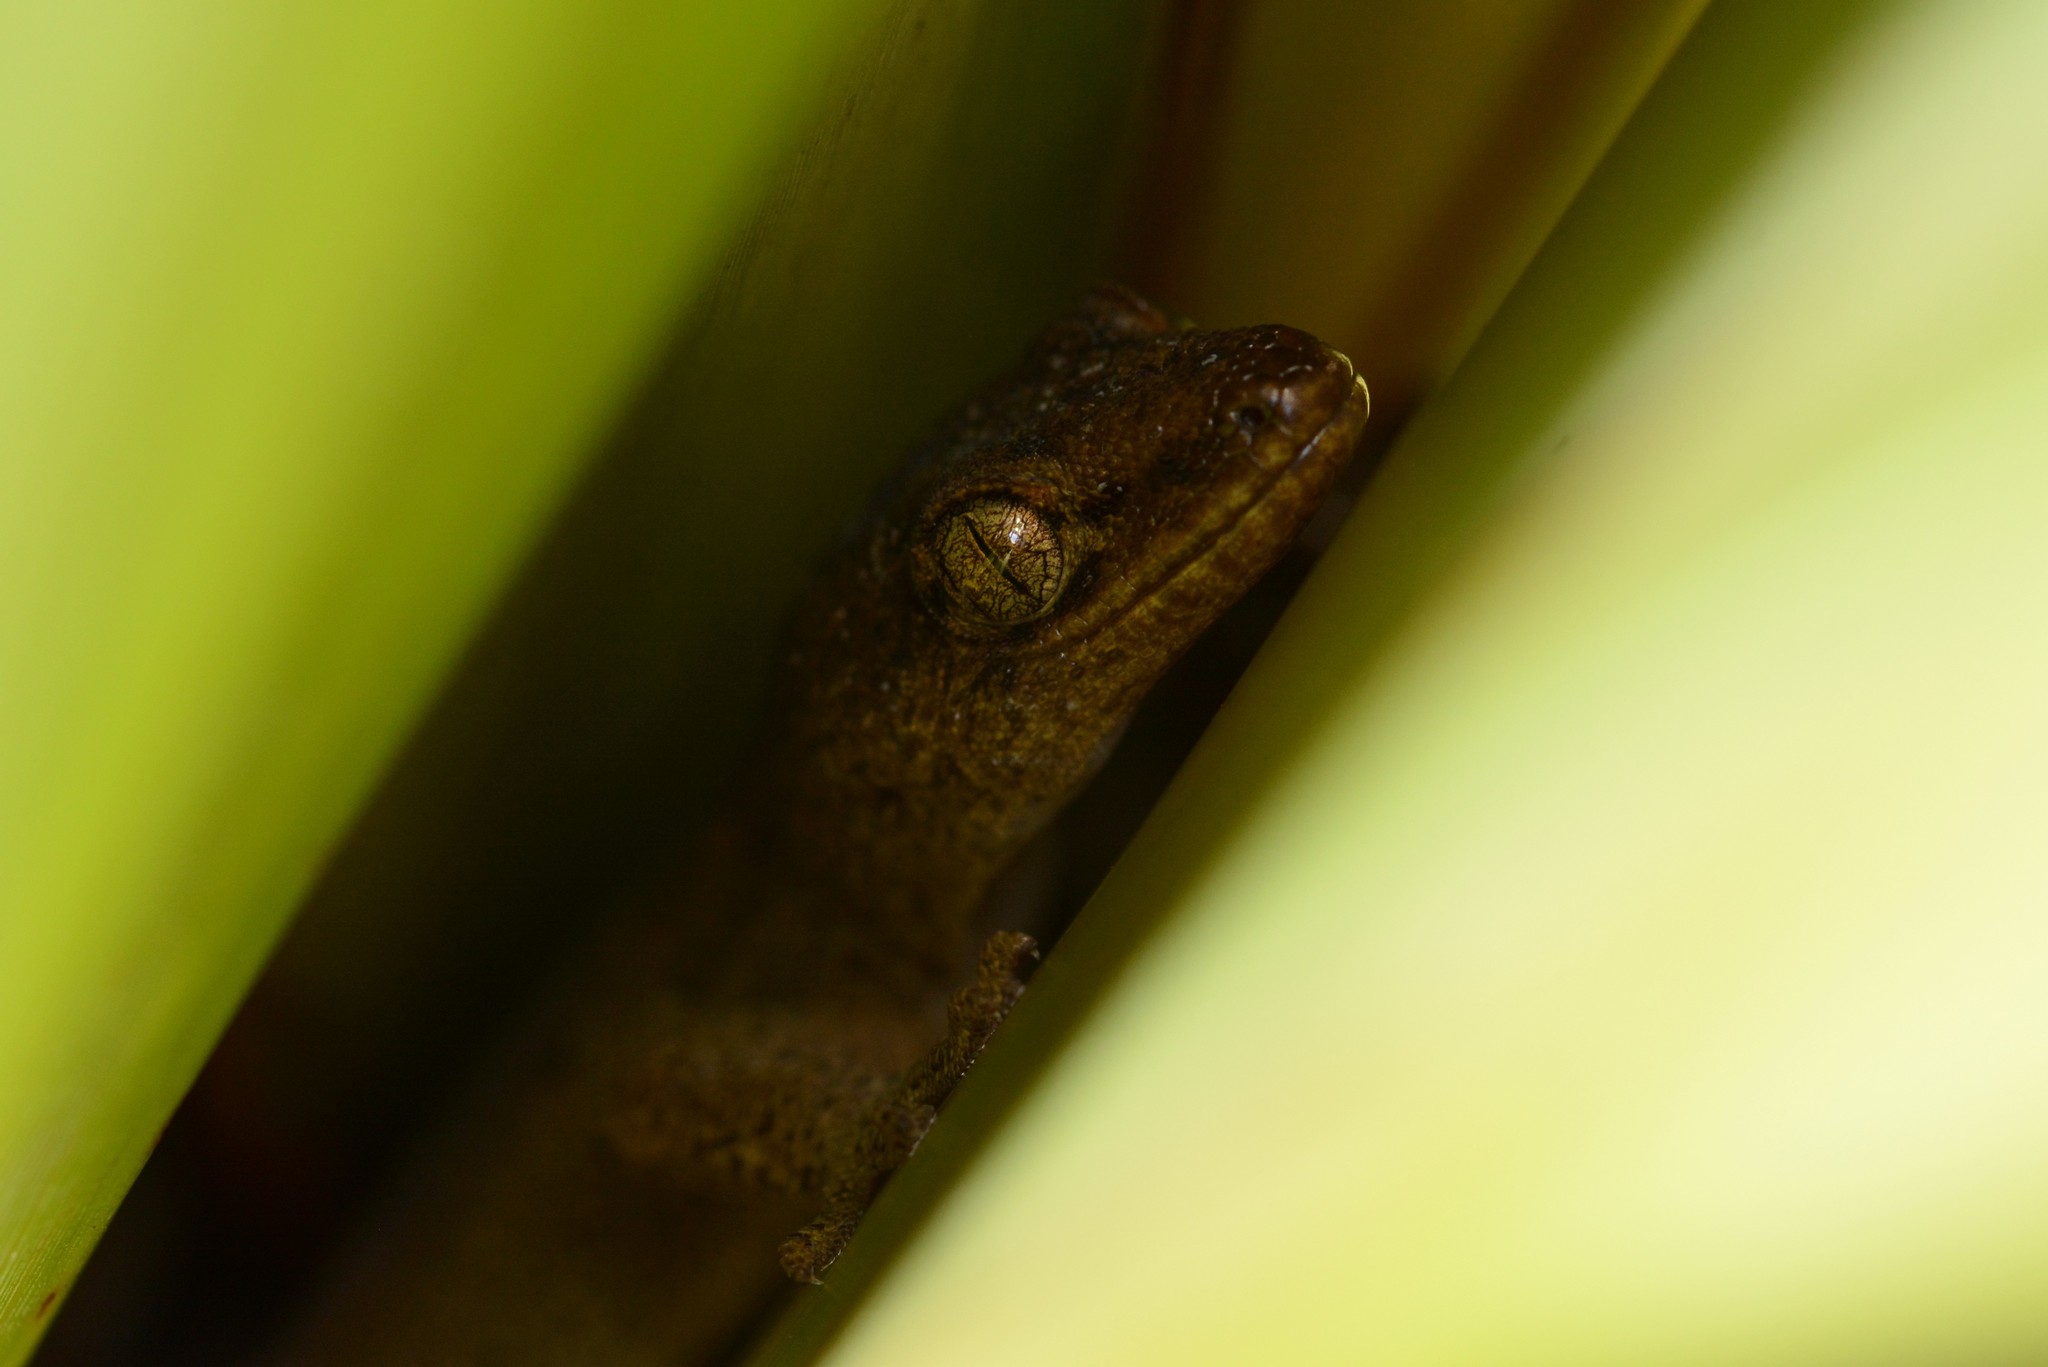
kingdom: Animalia
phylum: Chordata
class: Squamata
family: Diplodactylidae
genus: Woodworthia
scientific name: Woodworthia maculata
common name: Raukawa gecko
